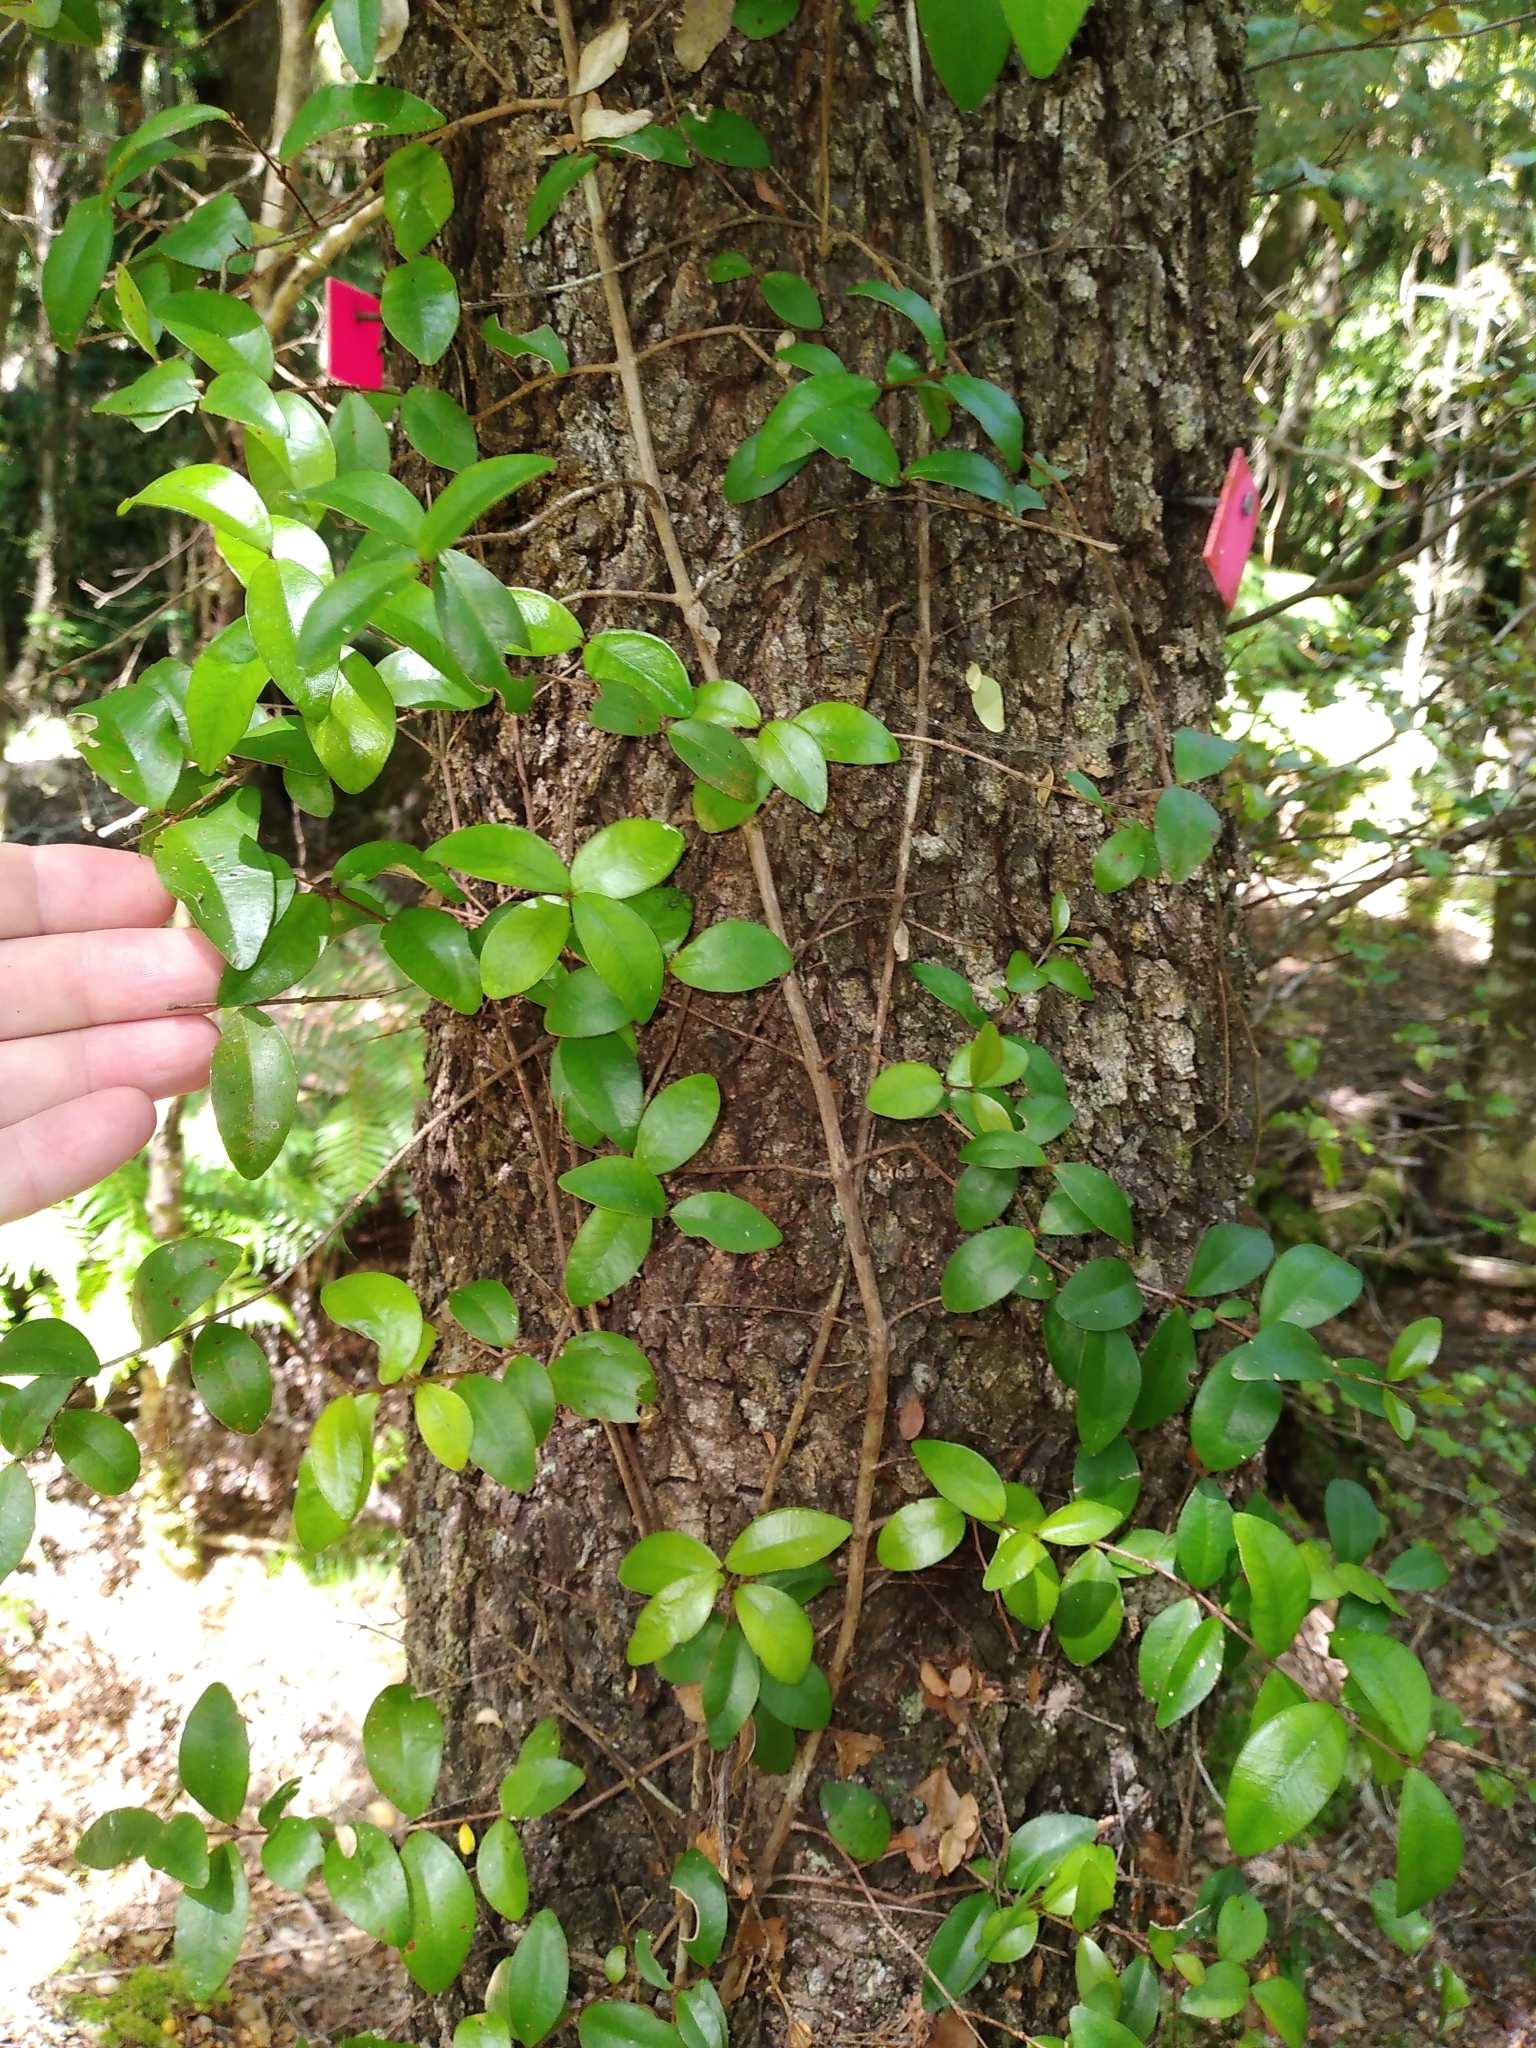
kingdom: Plantae
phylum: Tracheophyta
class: Magnoliopsida
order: Myrtales
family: Myrtaceae
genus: Metrosideros
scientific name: Metrosideros fulgens
